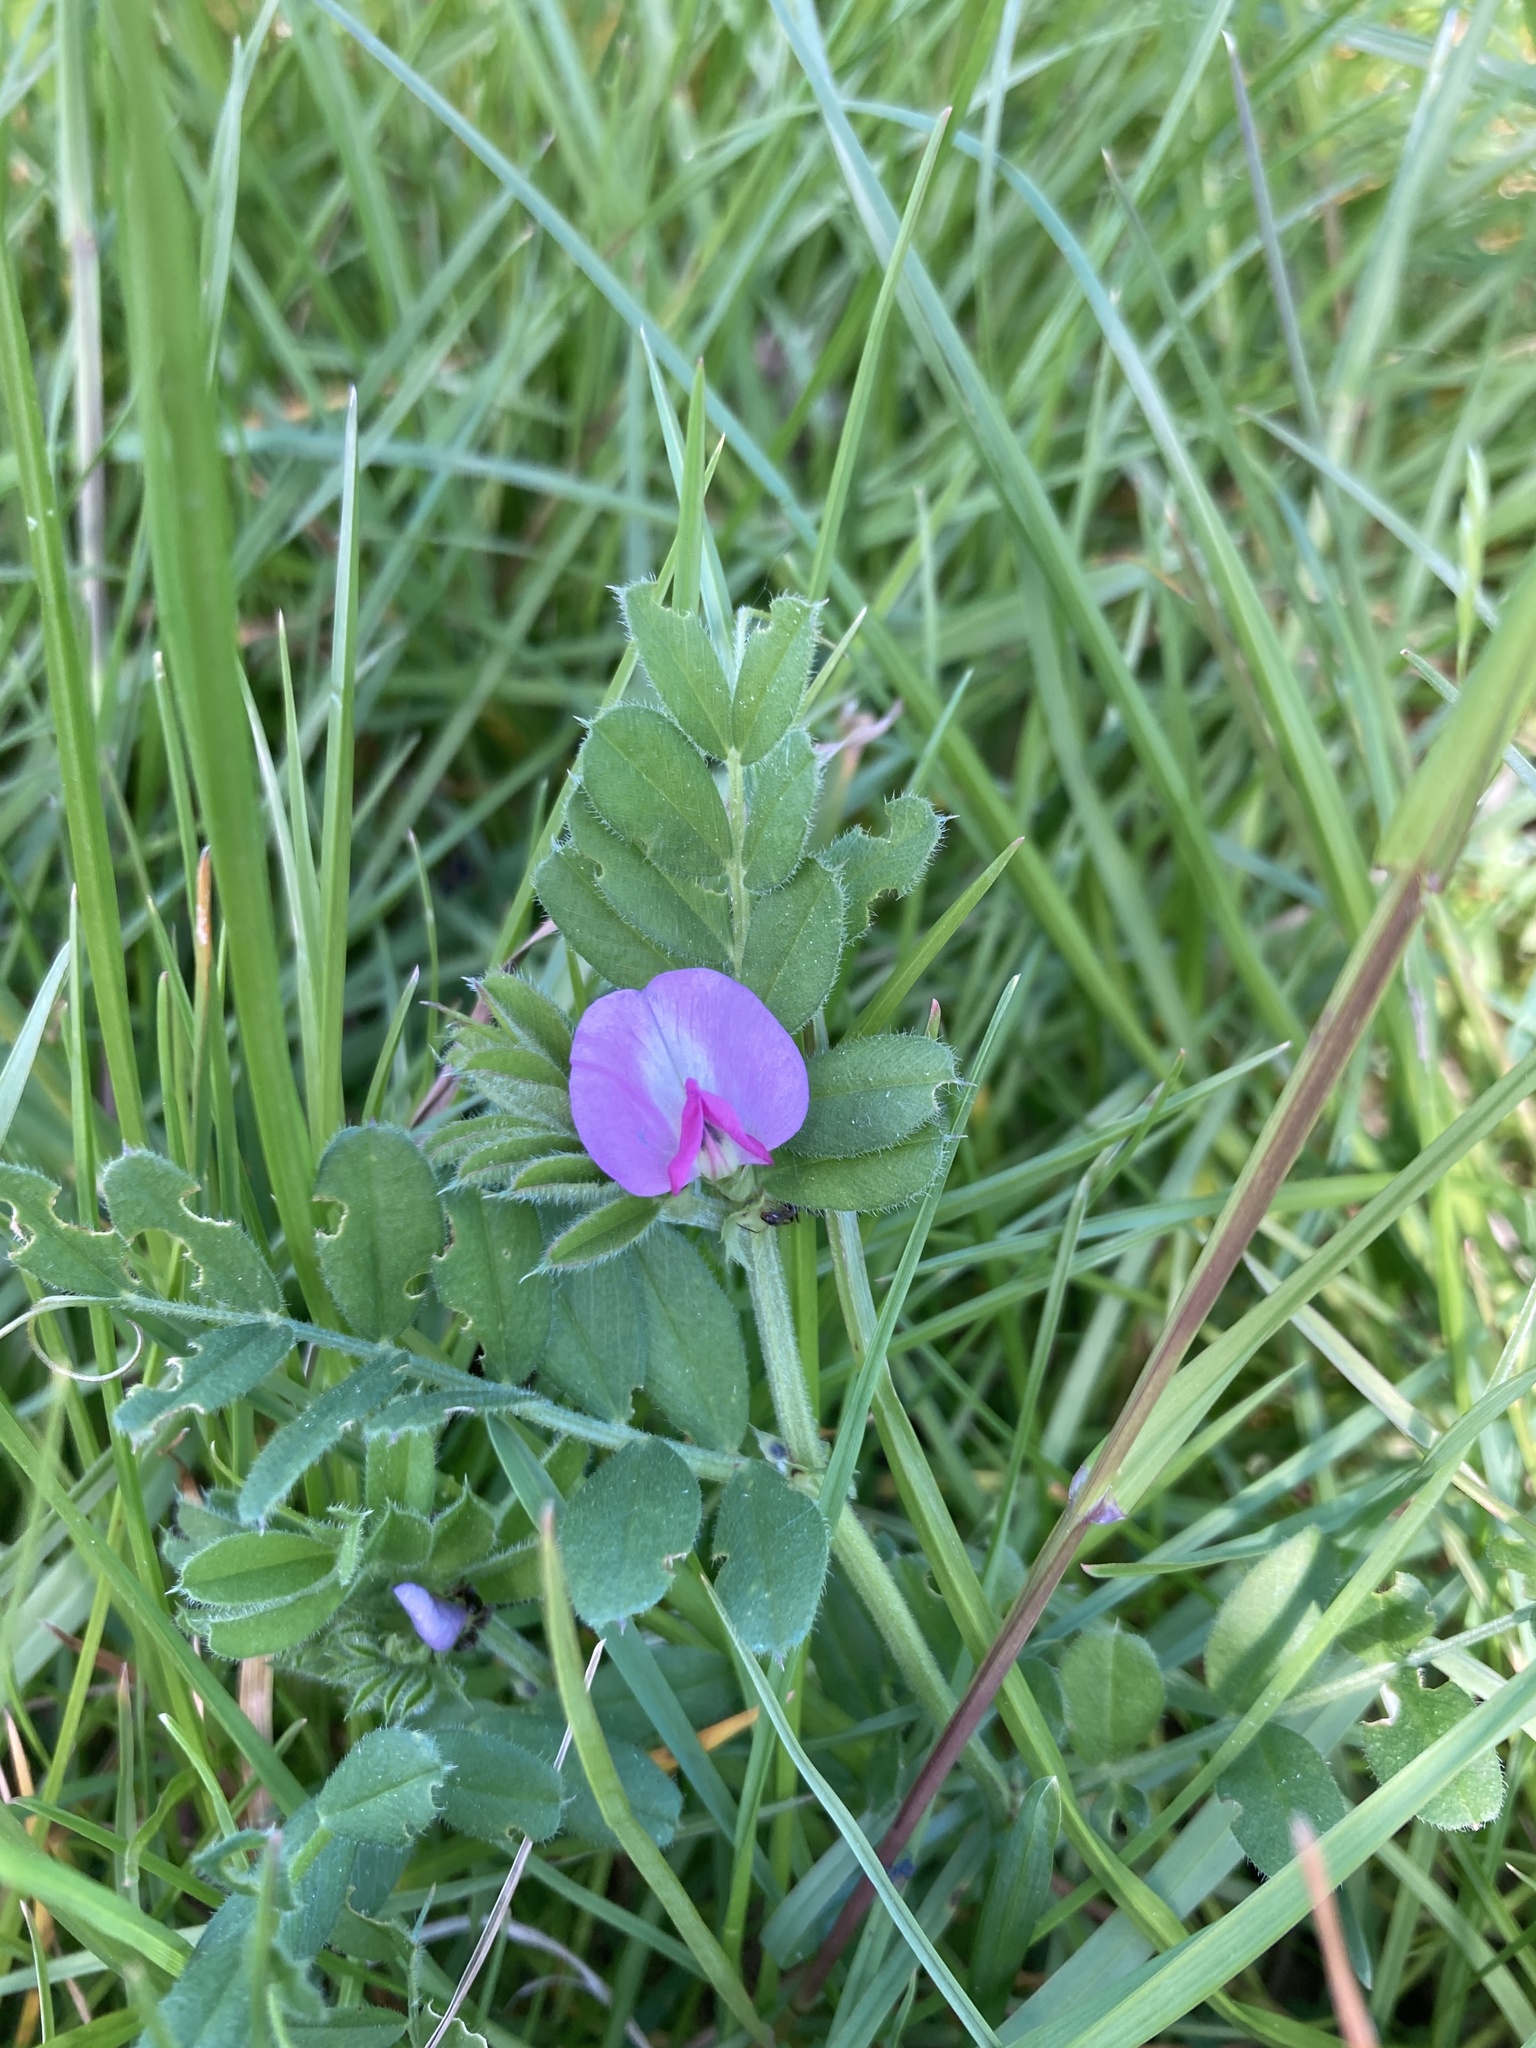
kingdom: Plantae
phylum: Tracheophyta
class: Magnoliopsida
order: Fabales
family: Fabaceae
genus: Vicia
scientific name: Vicia sativa
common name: Garden vetch
